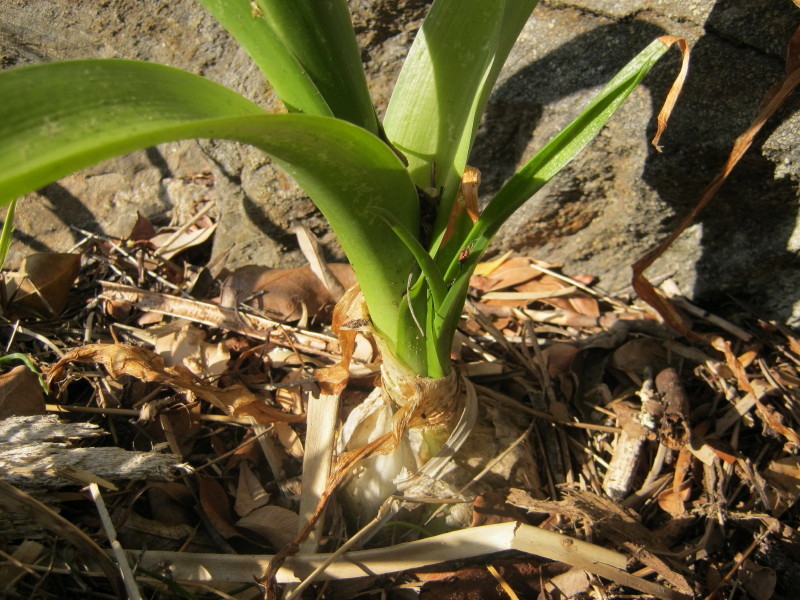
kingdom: Plantae
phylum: Tracheophyta
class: Liliopsida
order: Asparagales
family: Asparagaceae
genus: Albuca
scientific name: Albuca bracteata
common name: Sea-onion
